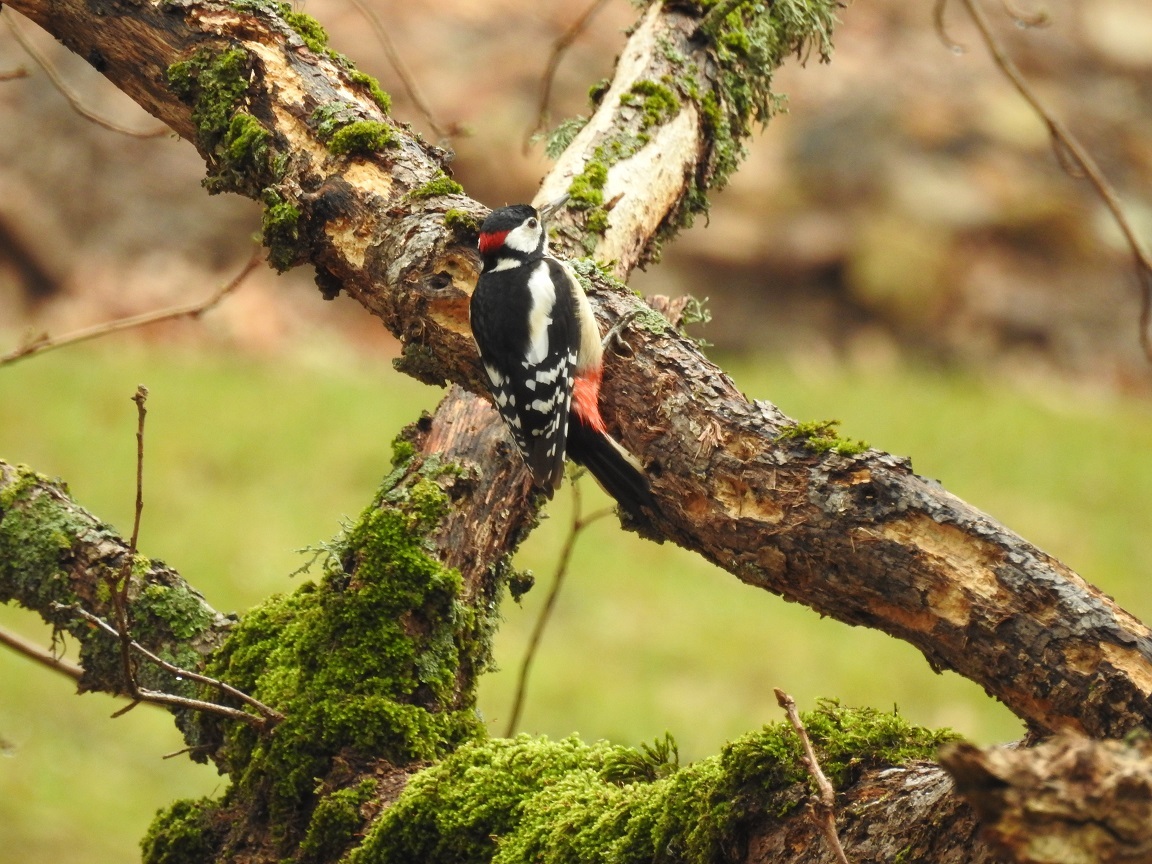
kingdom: Animalia
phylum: Chordata
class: Aves
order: Piciformes
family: Picidae
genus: Dendrocopos
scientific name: Dendrocopos major
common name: Great spotted woodpecker
